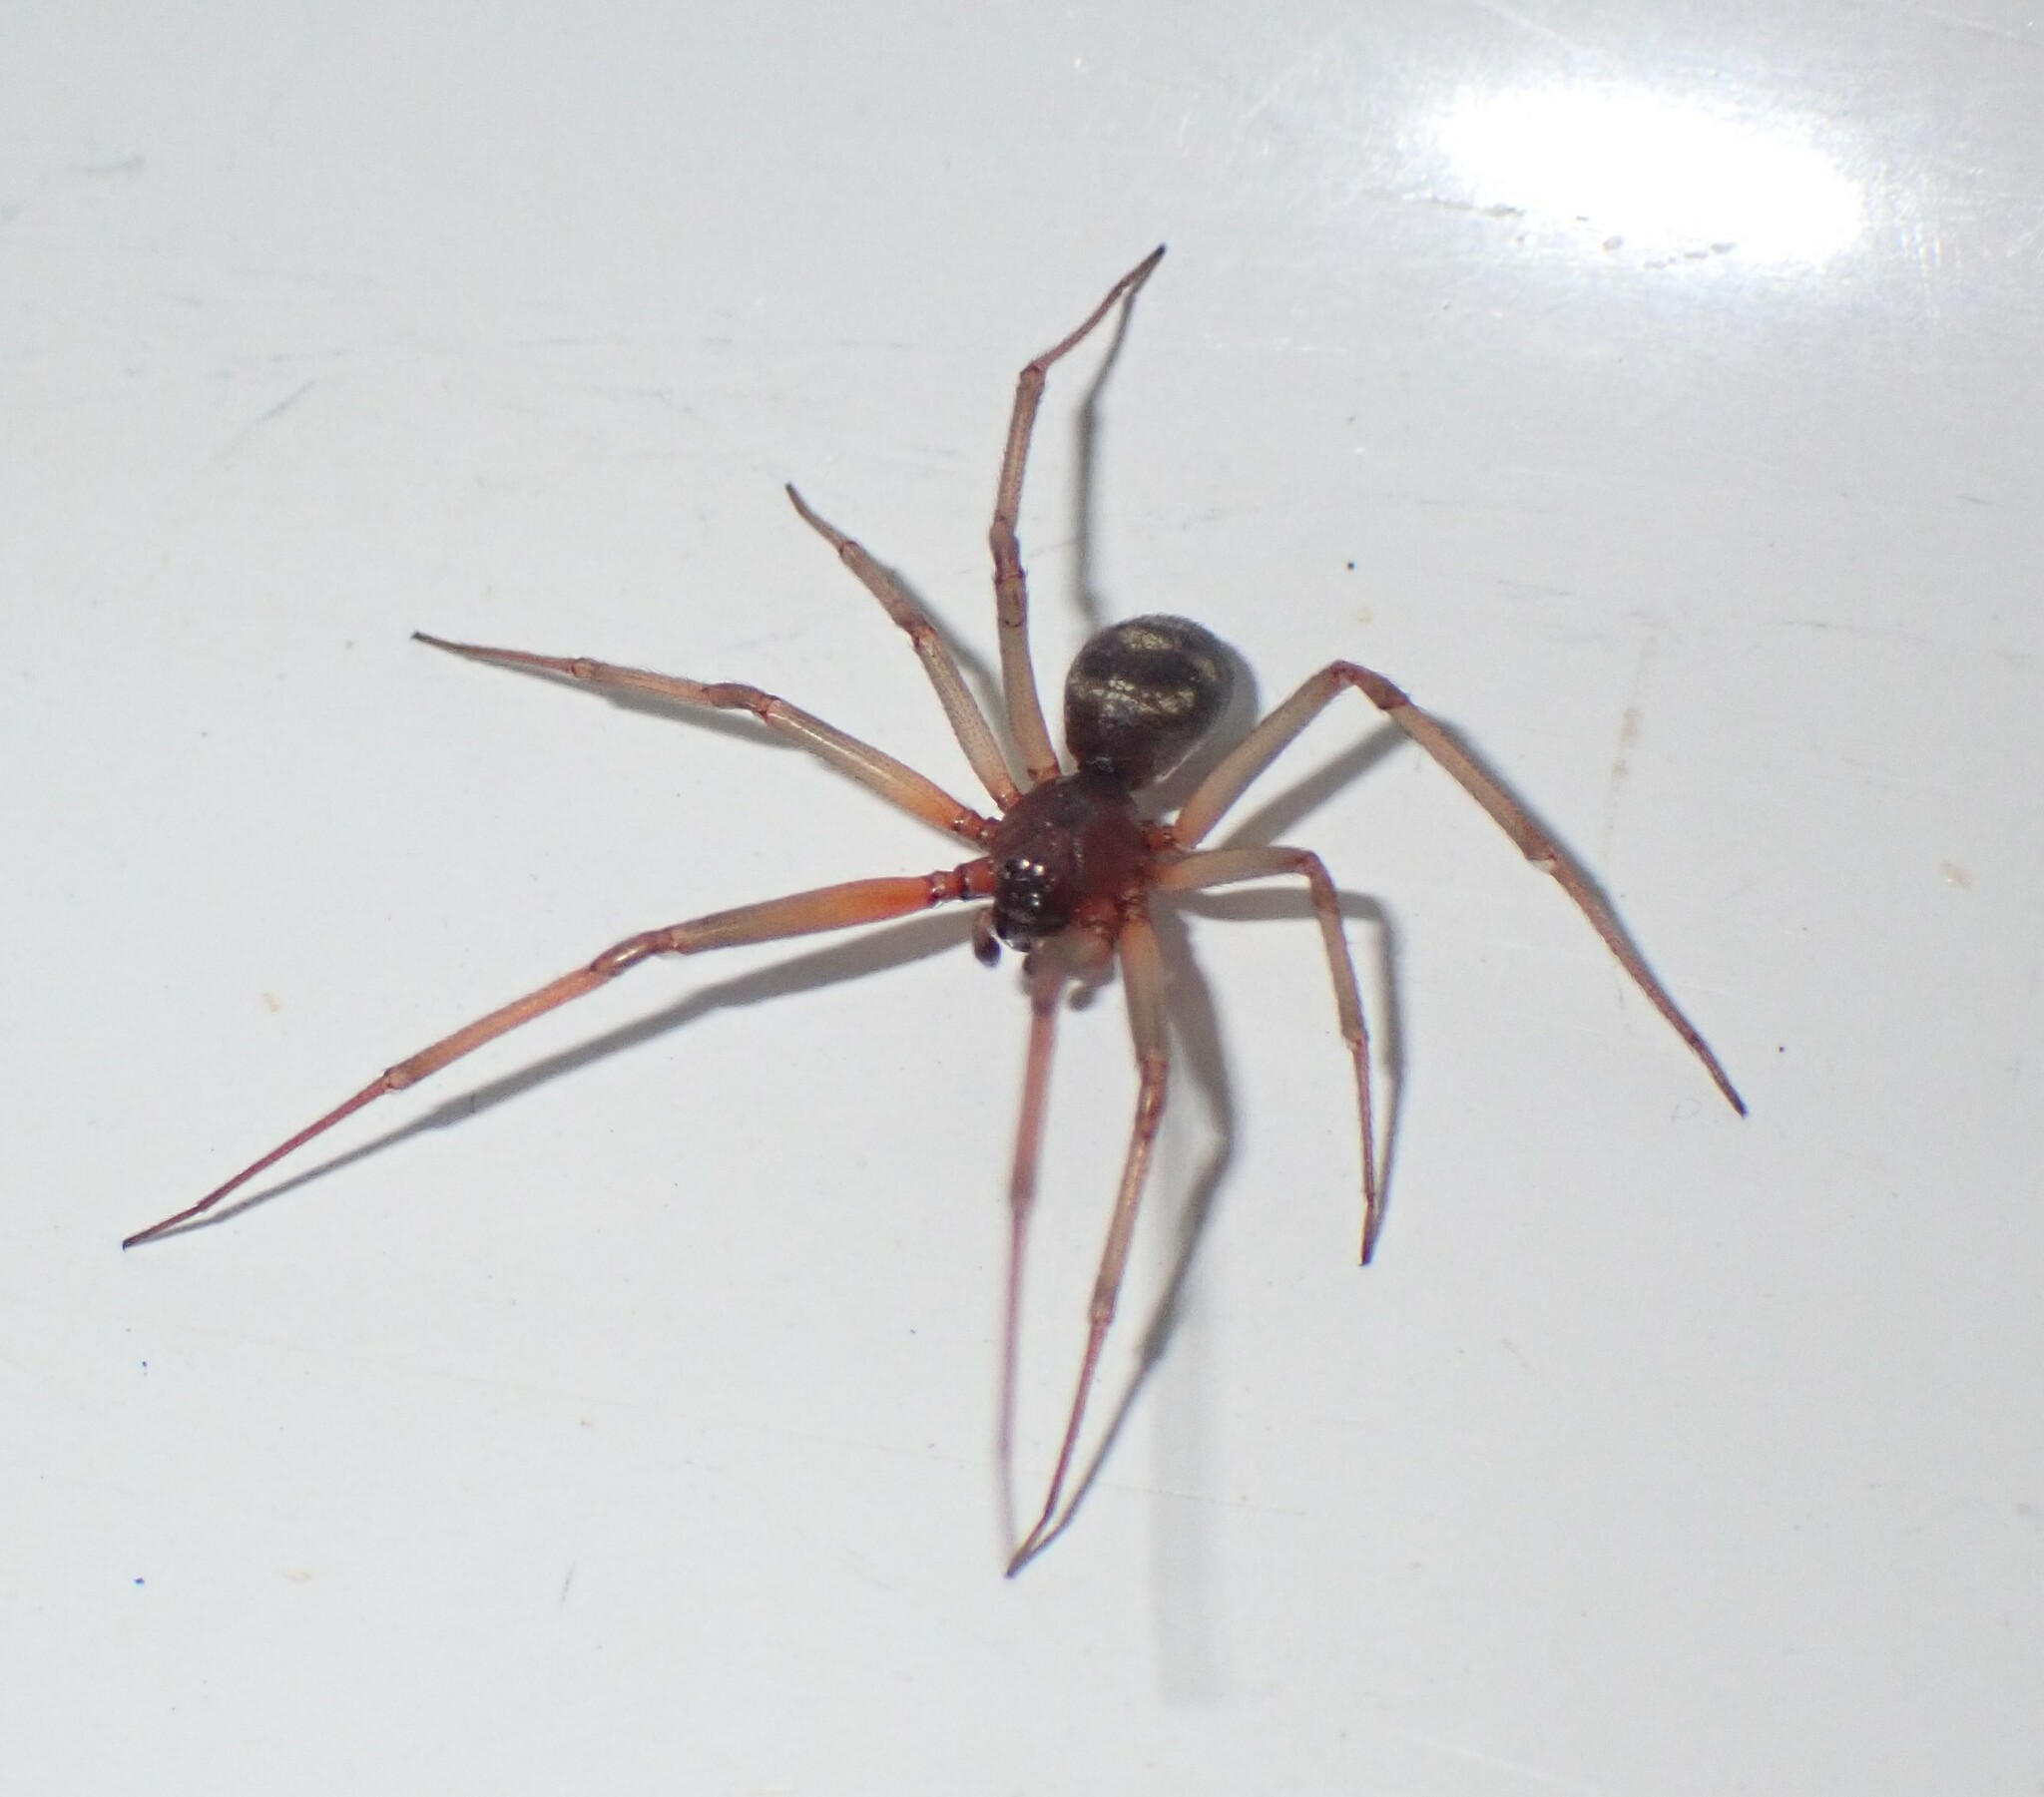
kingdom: Animalia
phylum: Arthropoda
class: Arachnida
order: Araneae
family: Theridiidae
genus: Steatoda
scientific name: Steatoda grossa
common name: False black widow
